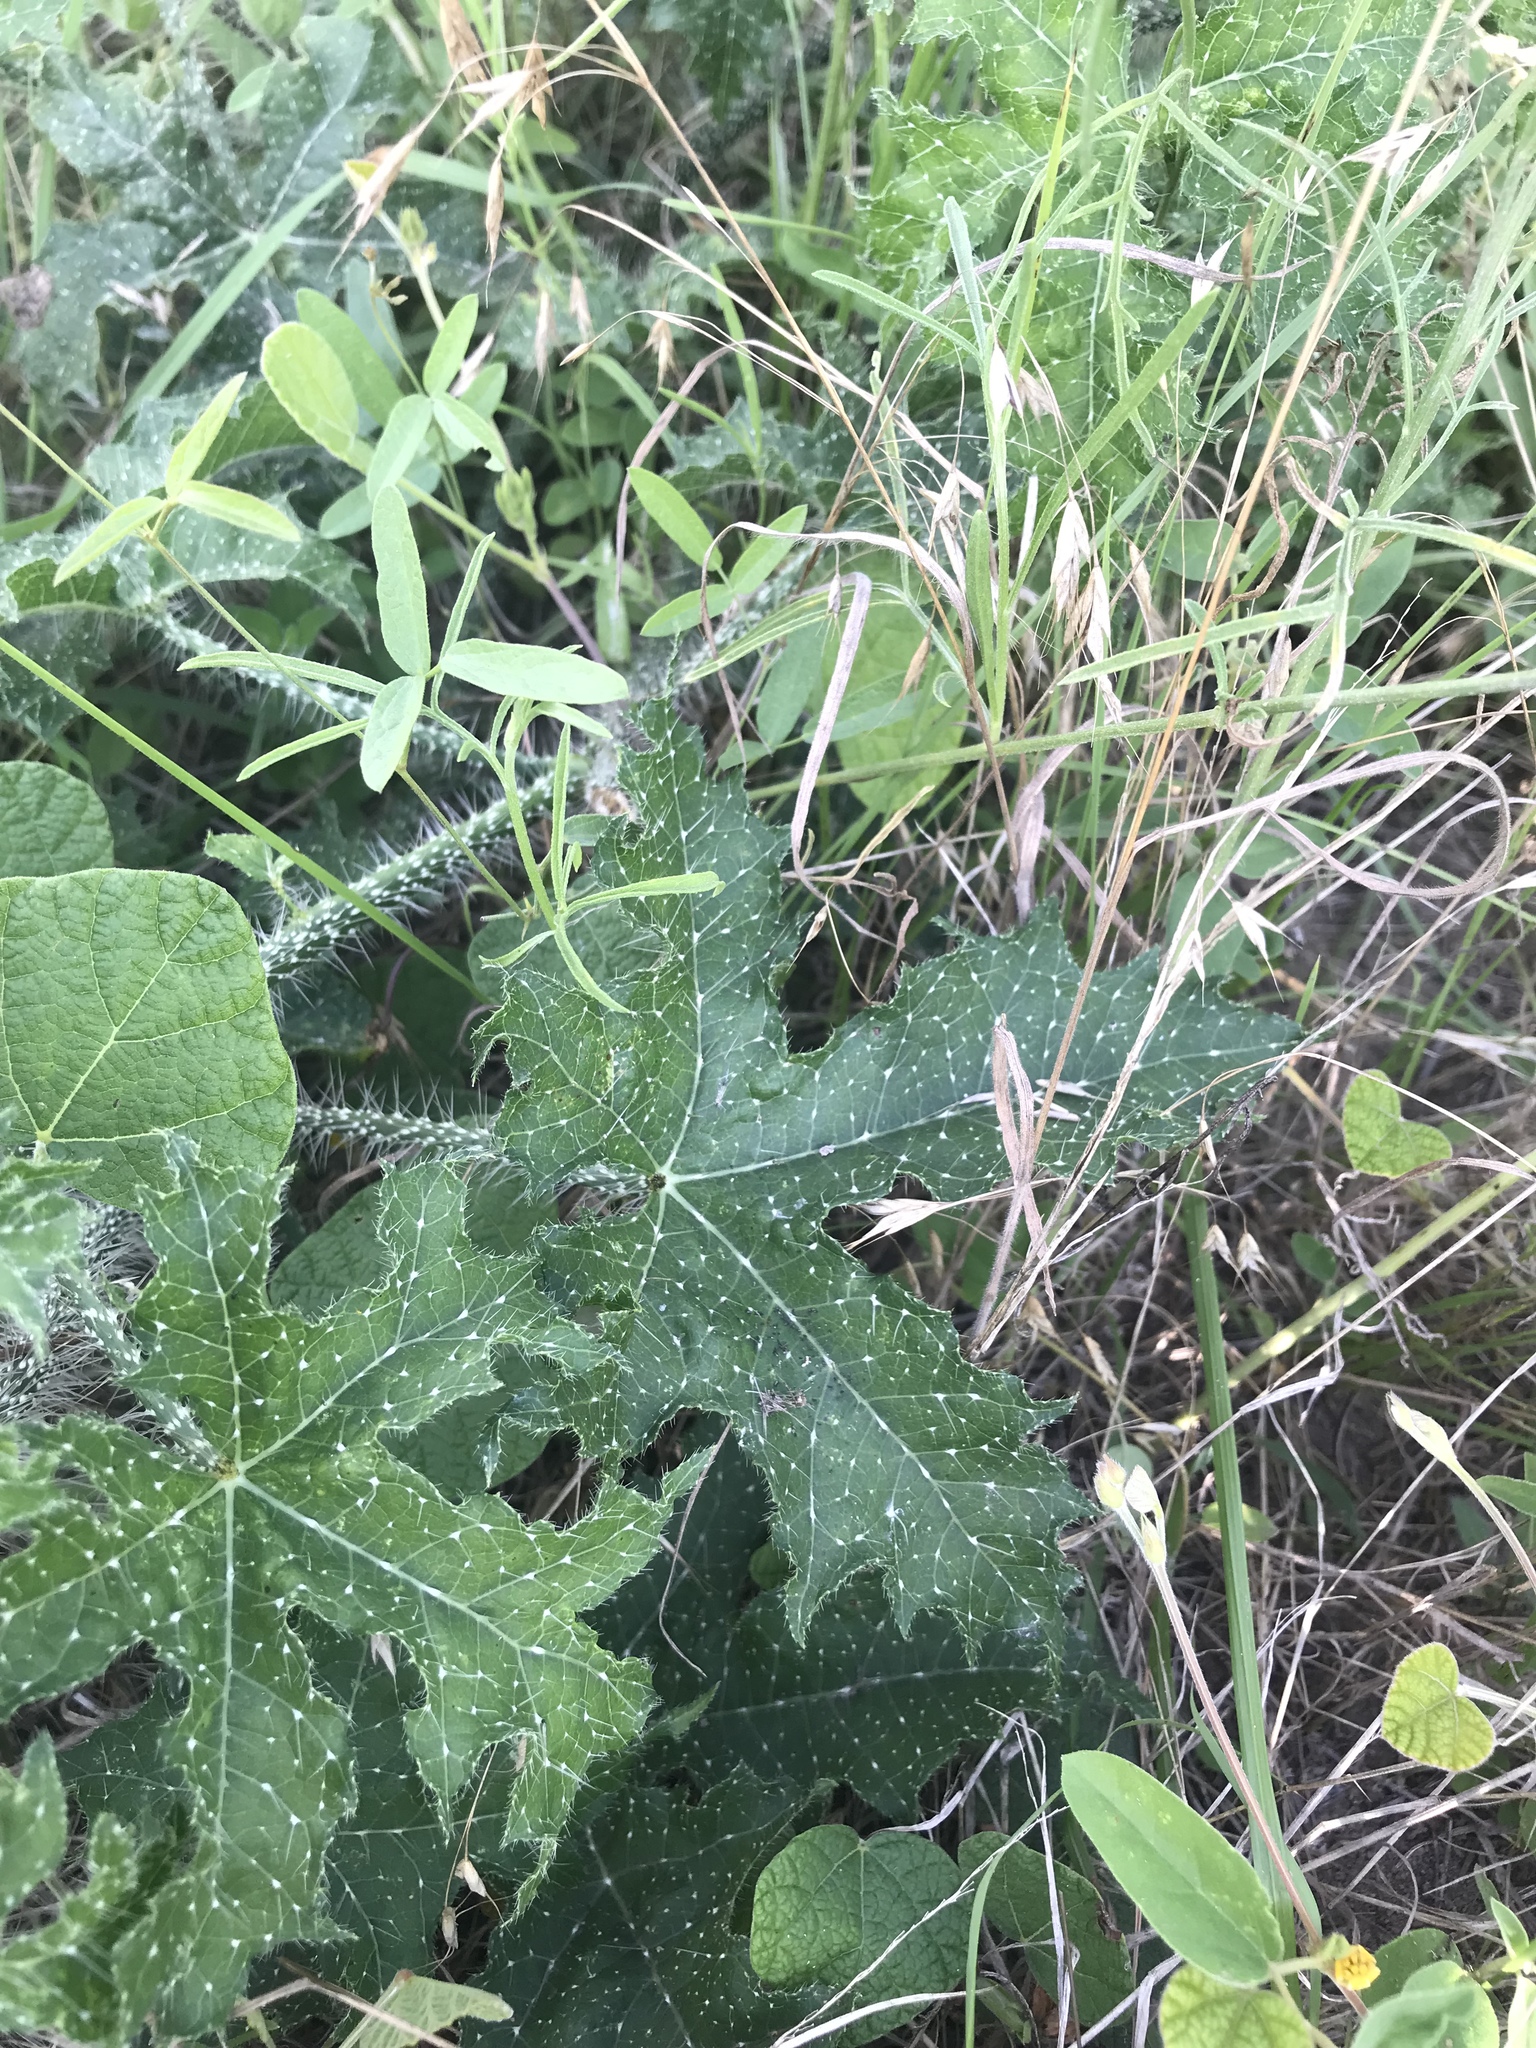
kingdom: Plantae
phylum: Tracheophyta
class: Magnoliopsida
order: Malpighiales
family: Euphorbiaceae
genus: Cnidoscolus
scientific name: Cnidoscolus texanus
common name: Texas bull-nettle
